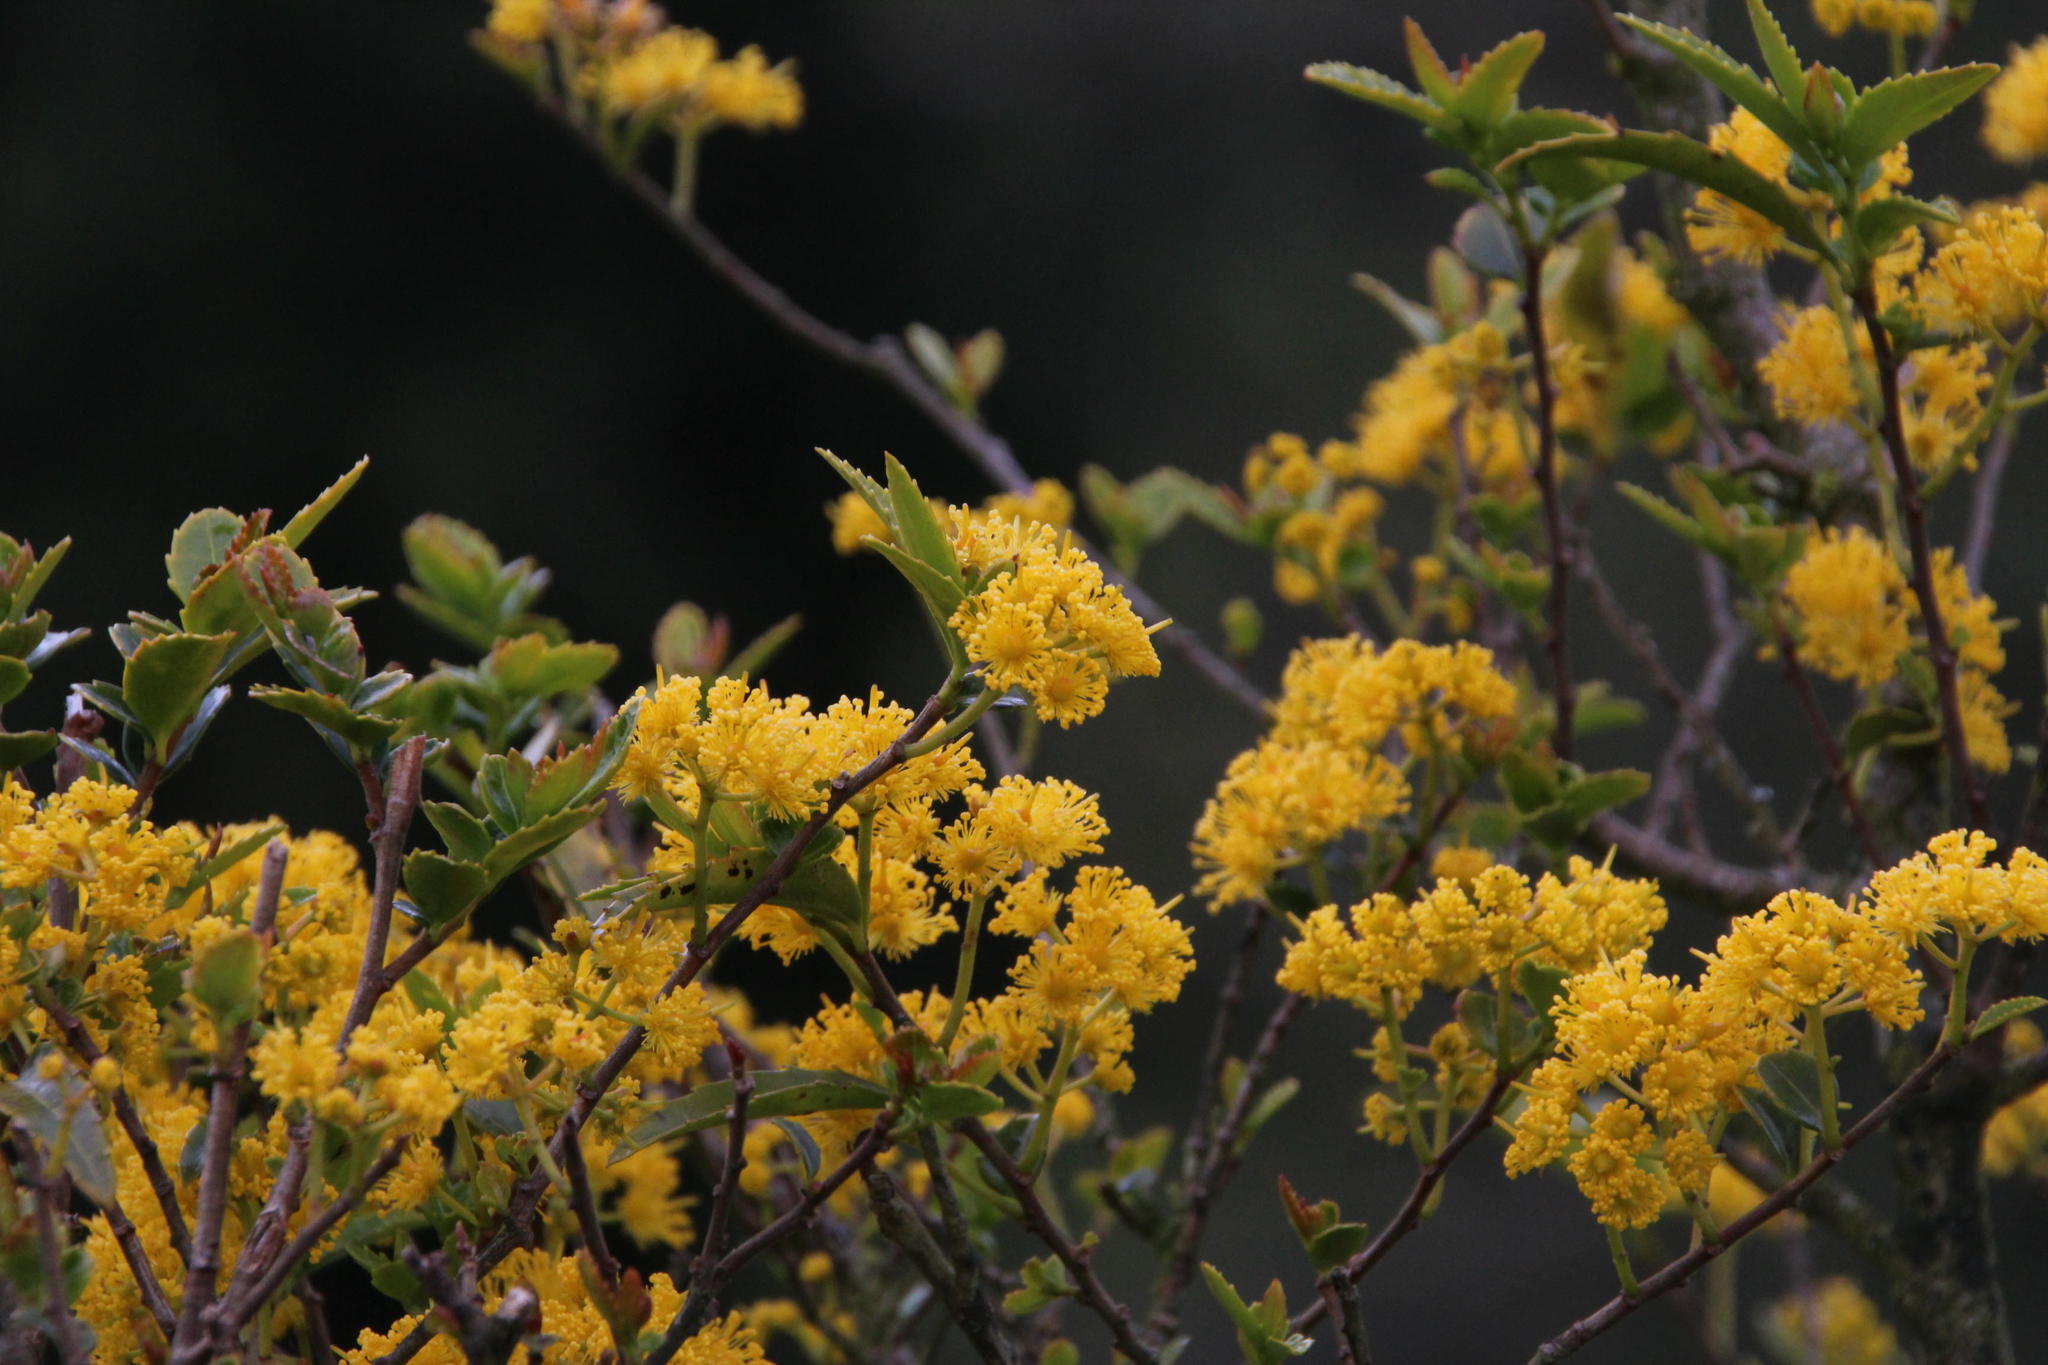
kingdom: Plantae
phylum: Tracheophyta
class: Magnoliopsida
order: Malpighiales
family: Salicaceae
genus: Azara
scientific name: Azara lanceolata
